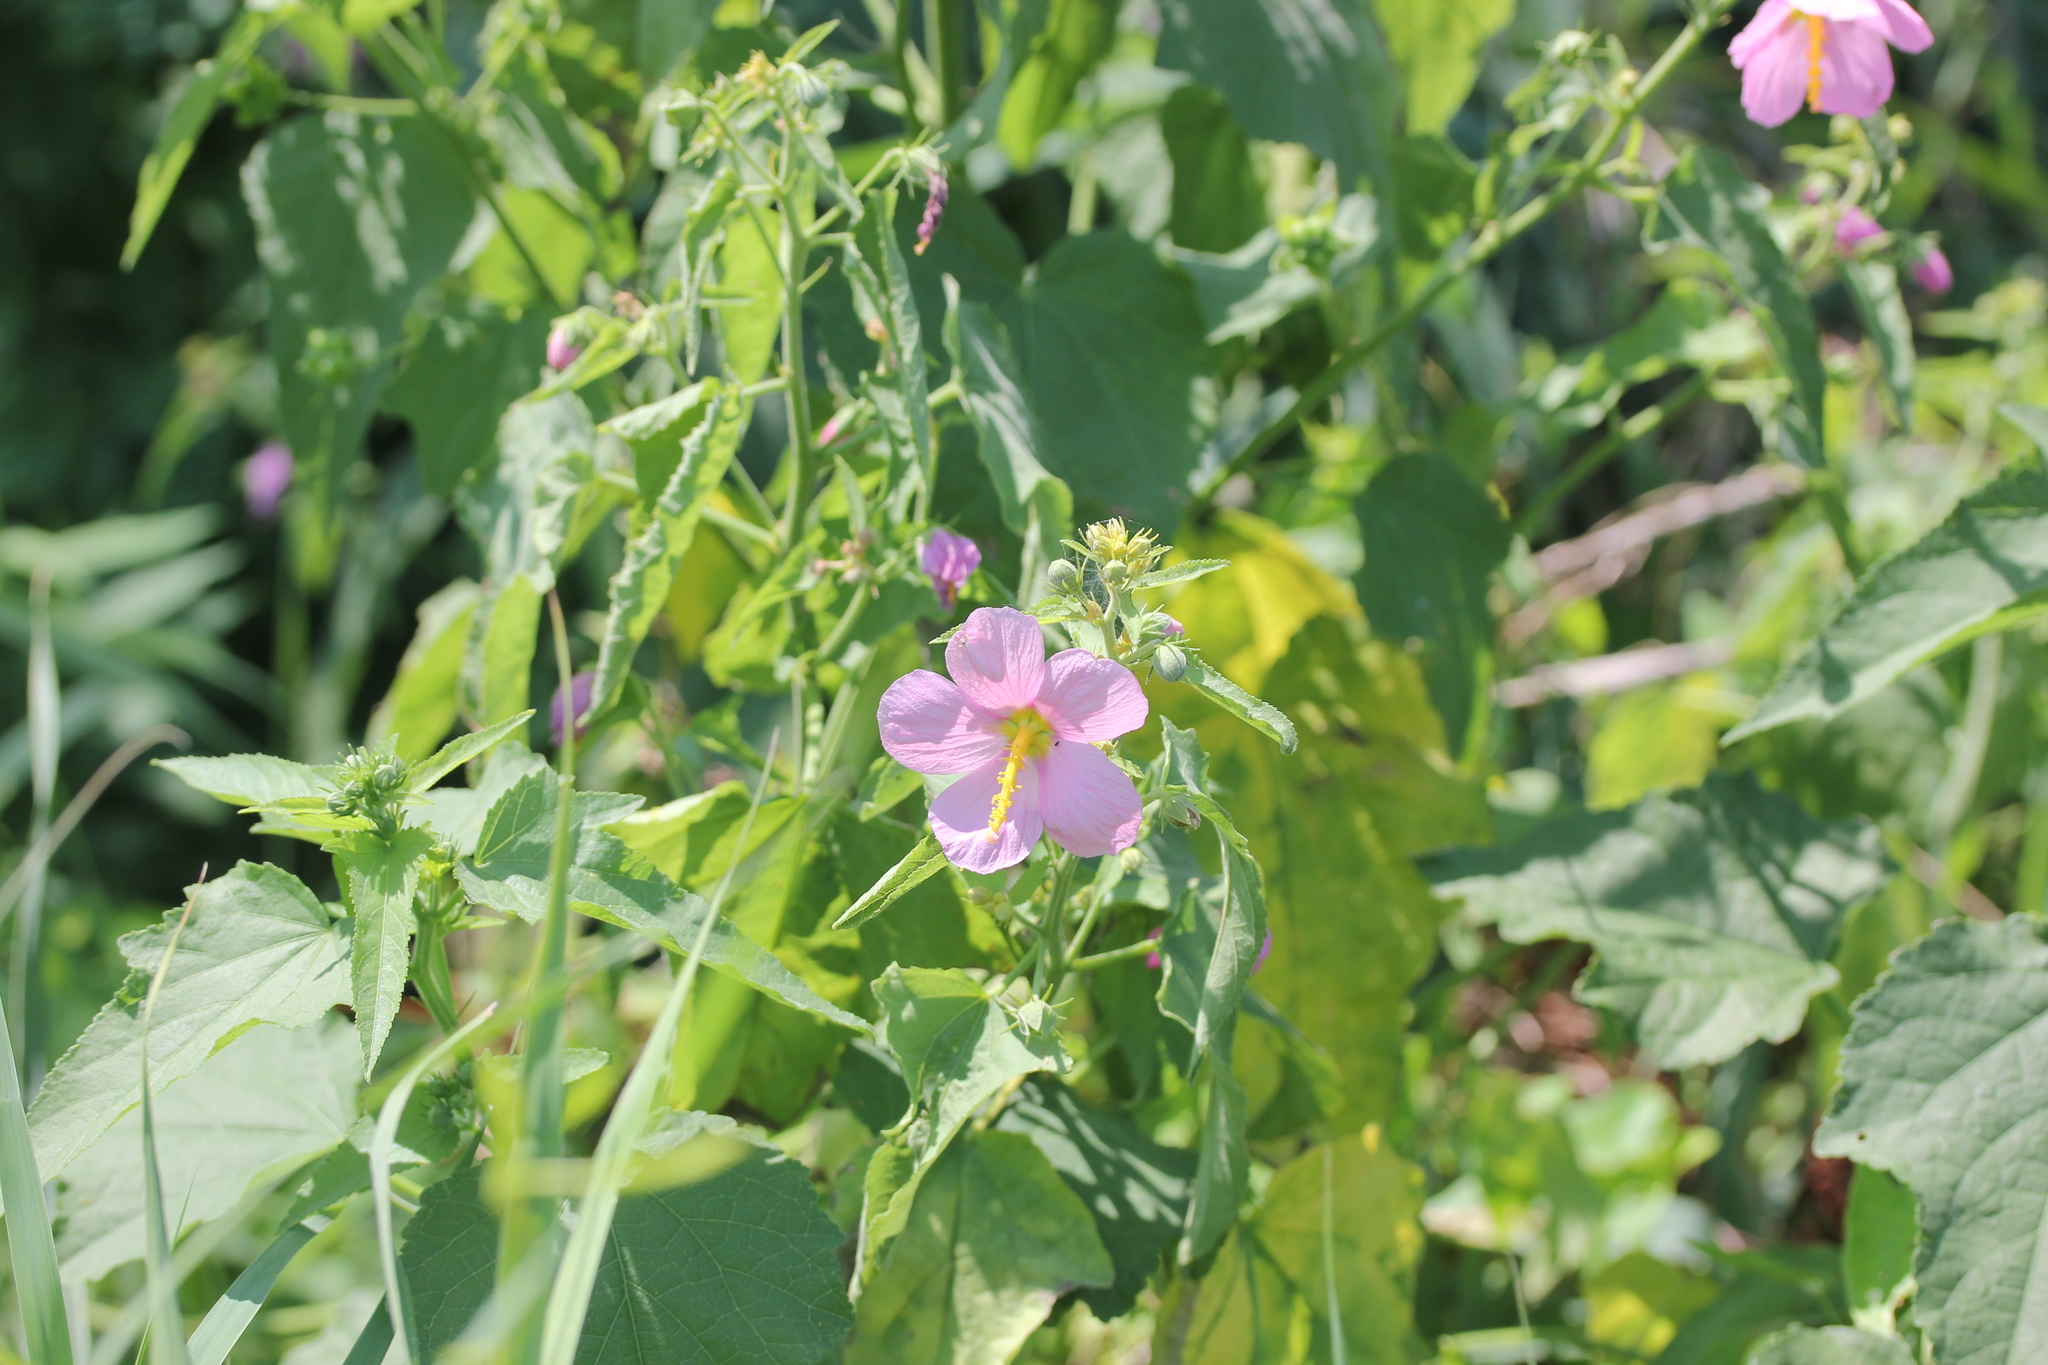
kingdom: Plantae
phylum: Tracheophyta
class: Magnoliopsida
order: Malvales
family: Malvaceae
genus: Kosteletzkya
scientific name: Kosteletzkya pentacarpos
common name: Virginia saltmarsh mallow
